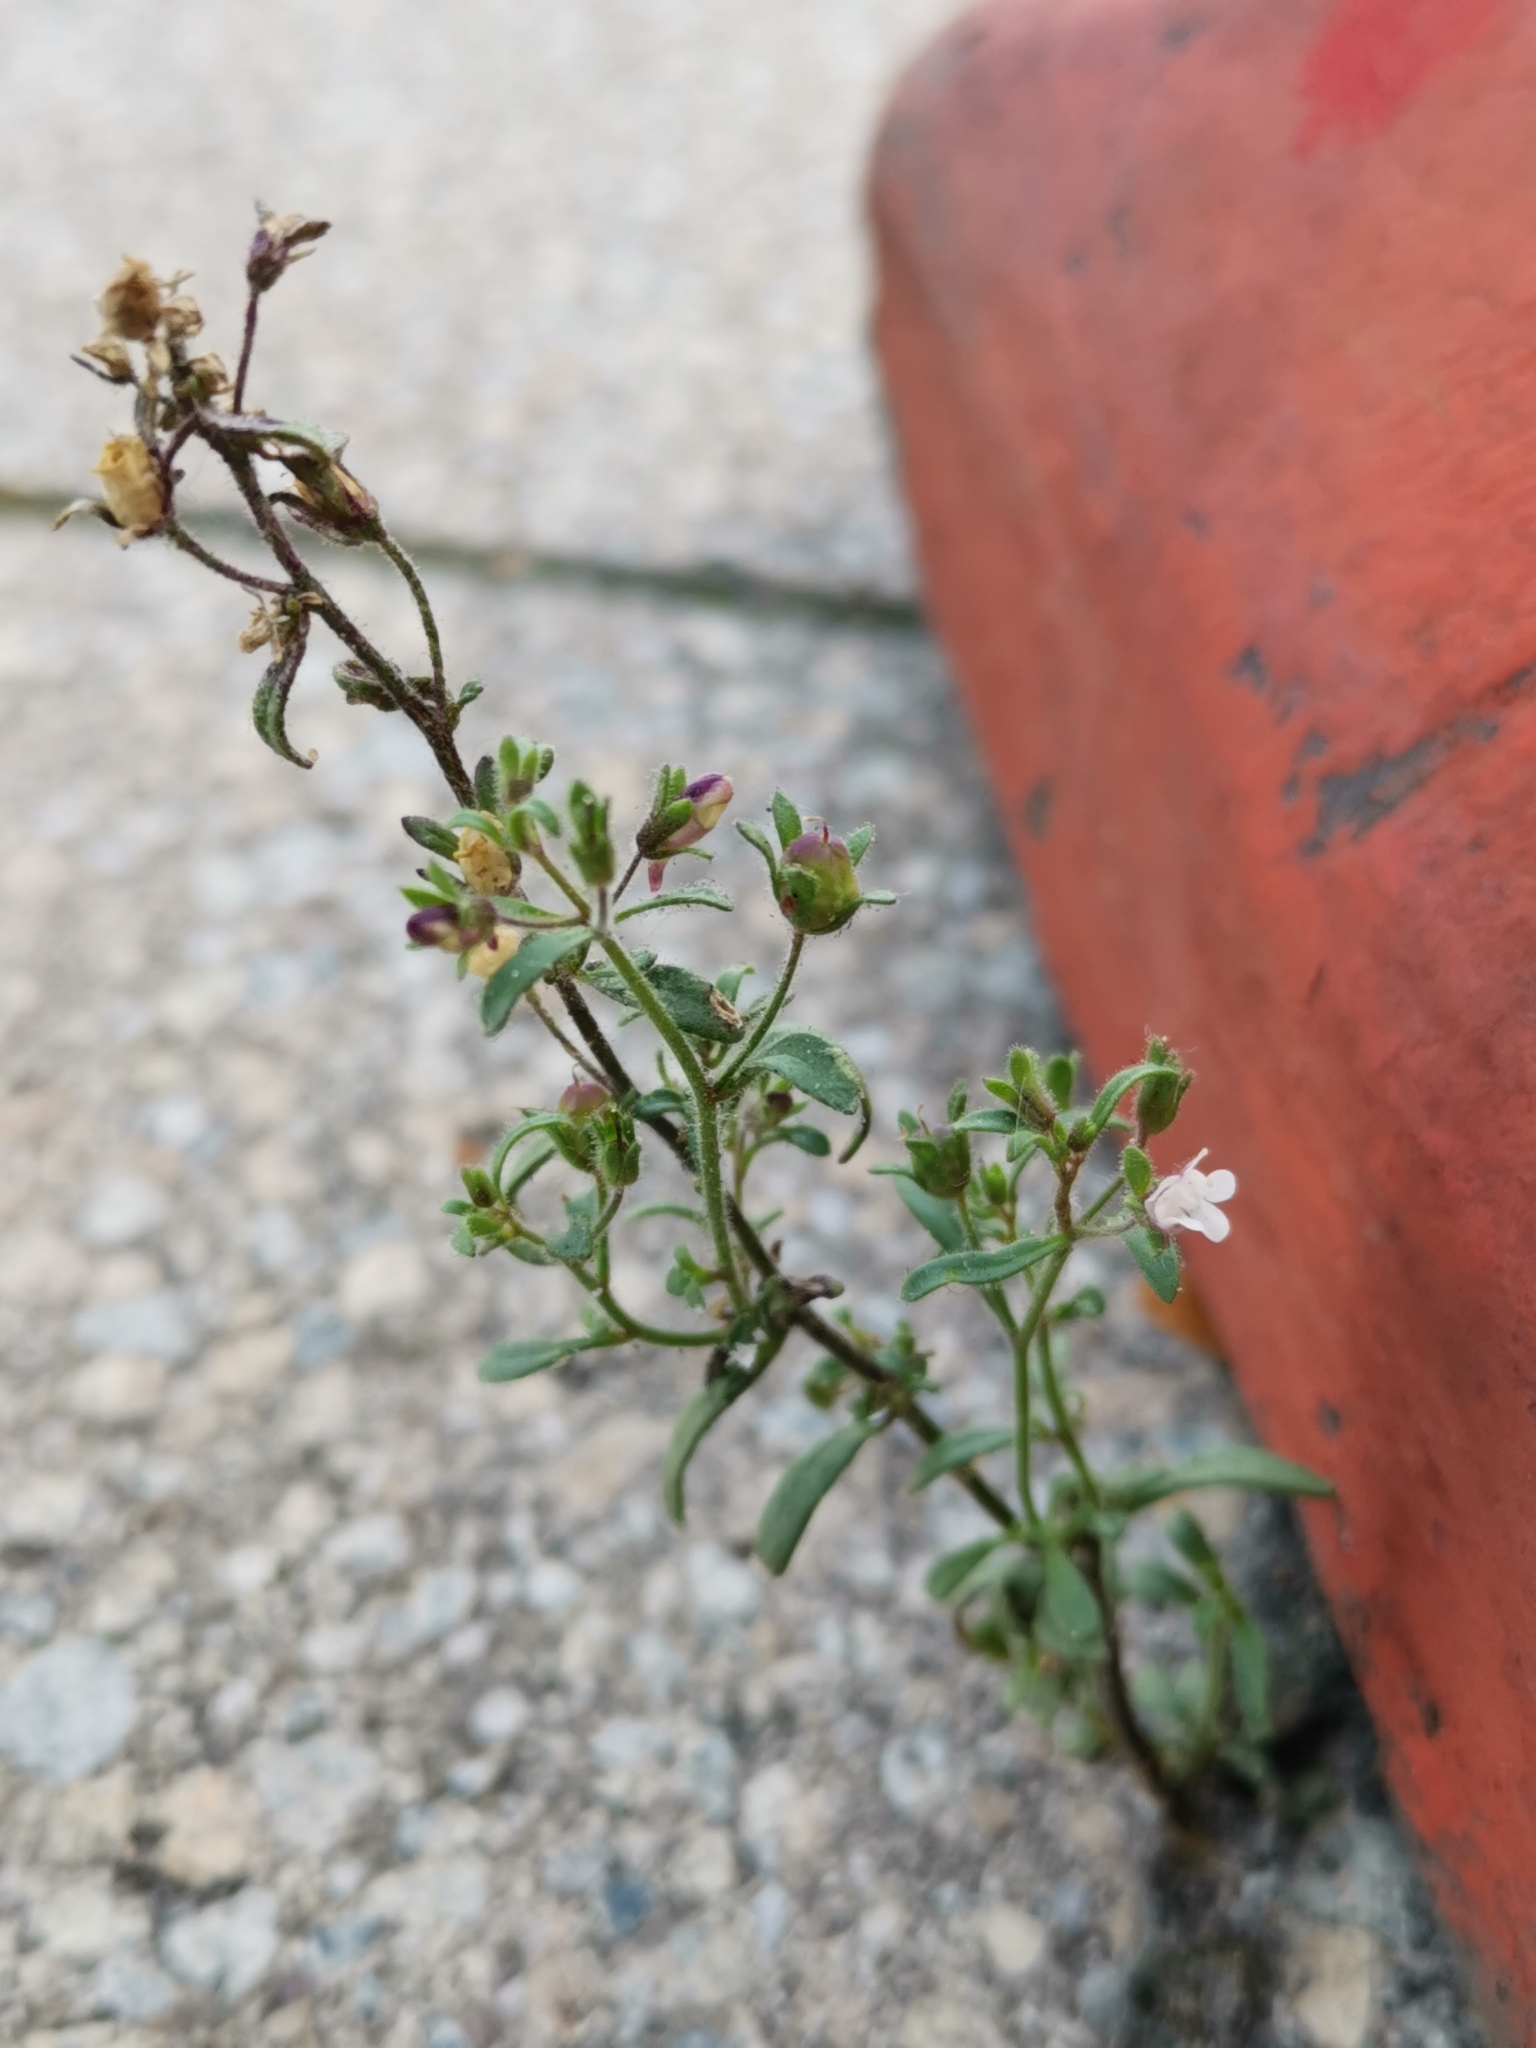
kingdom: Plantae
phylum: Tracheophyta
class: Magnoliopsida
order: Lamiales
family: Plantaginaceae
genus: Chaenorhinum
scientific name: Chaenorhinum minus
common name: Dwarf snapdragon
